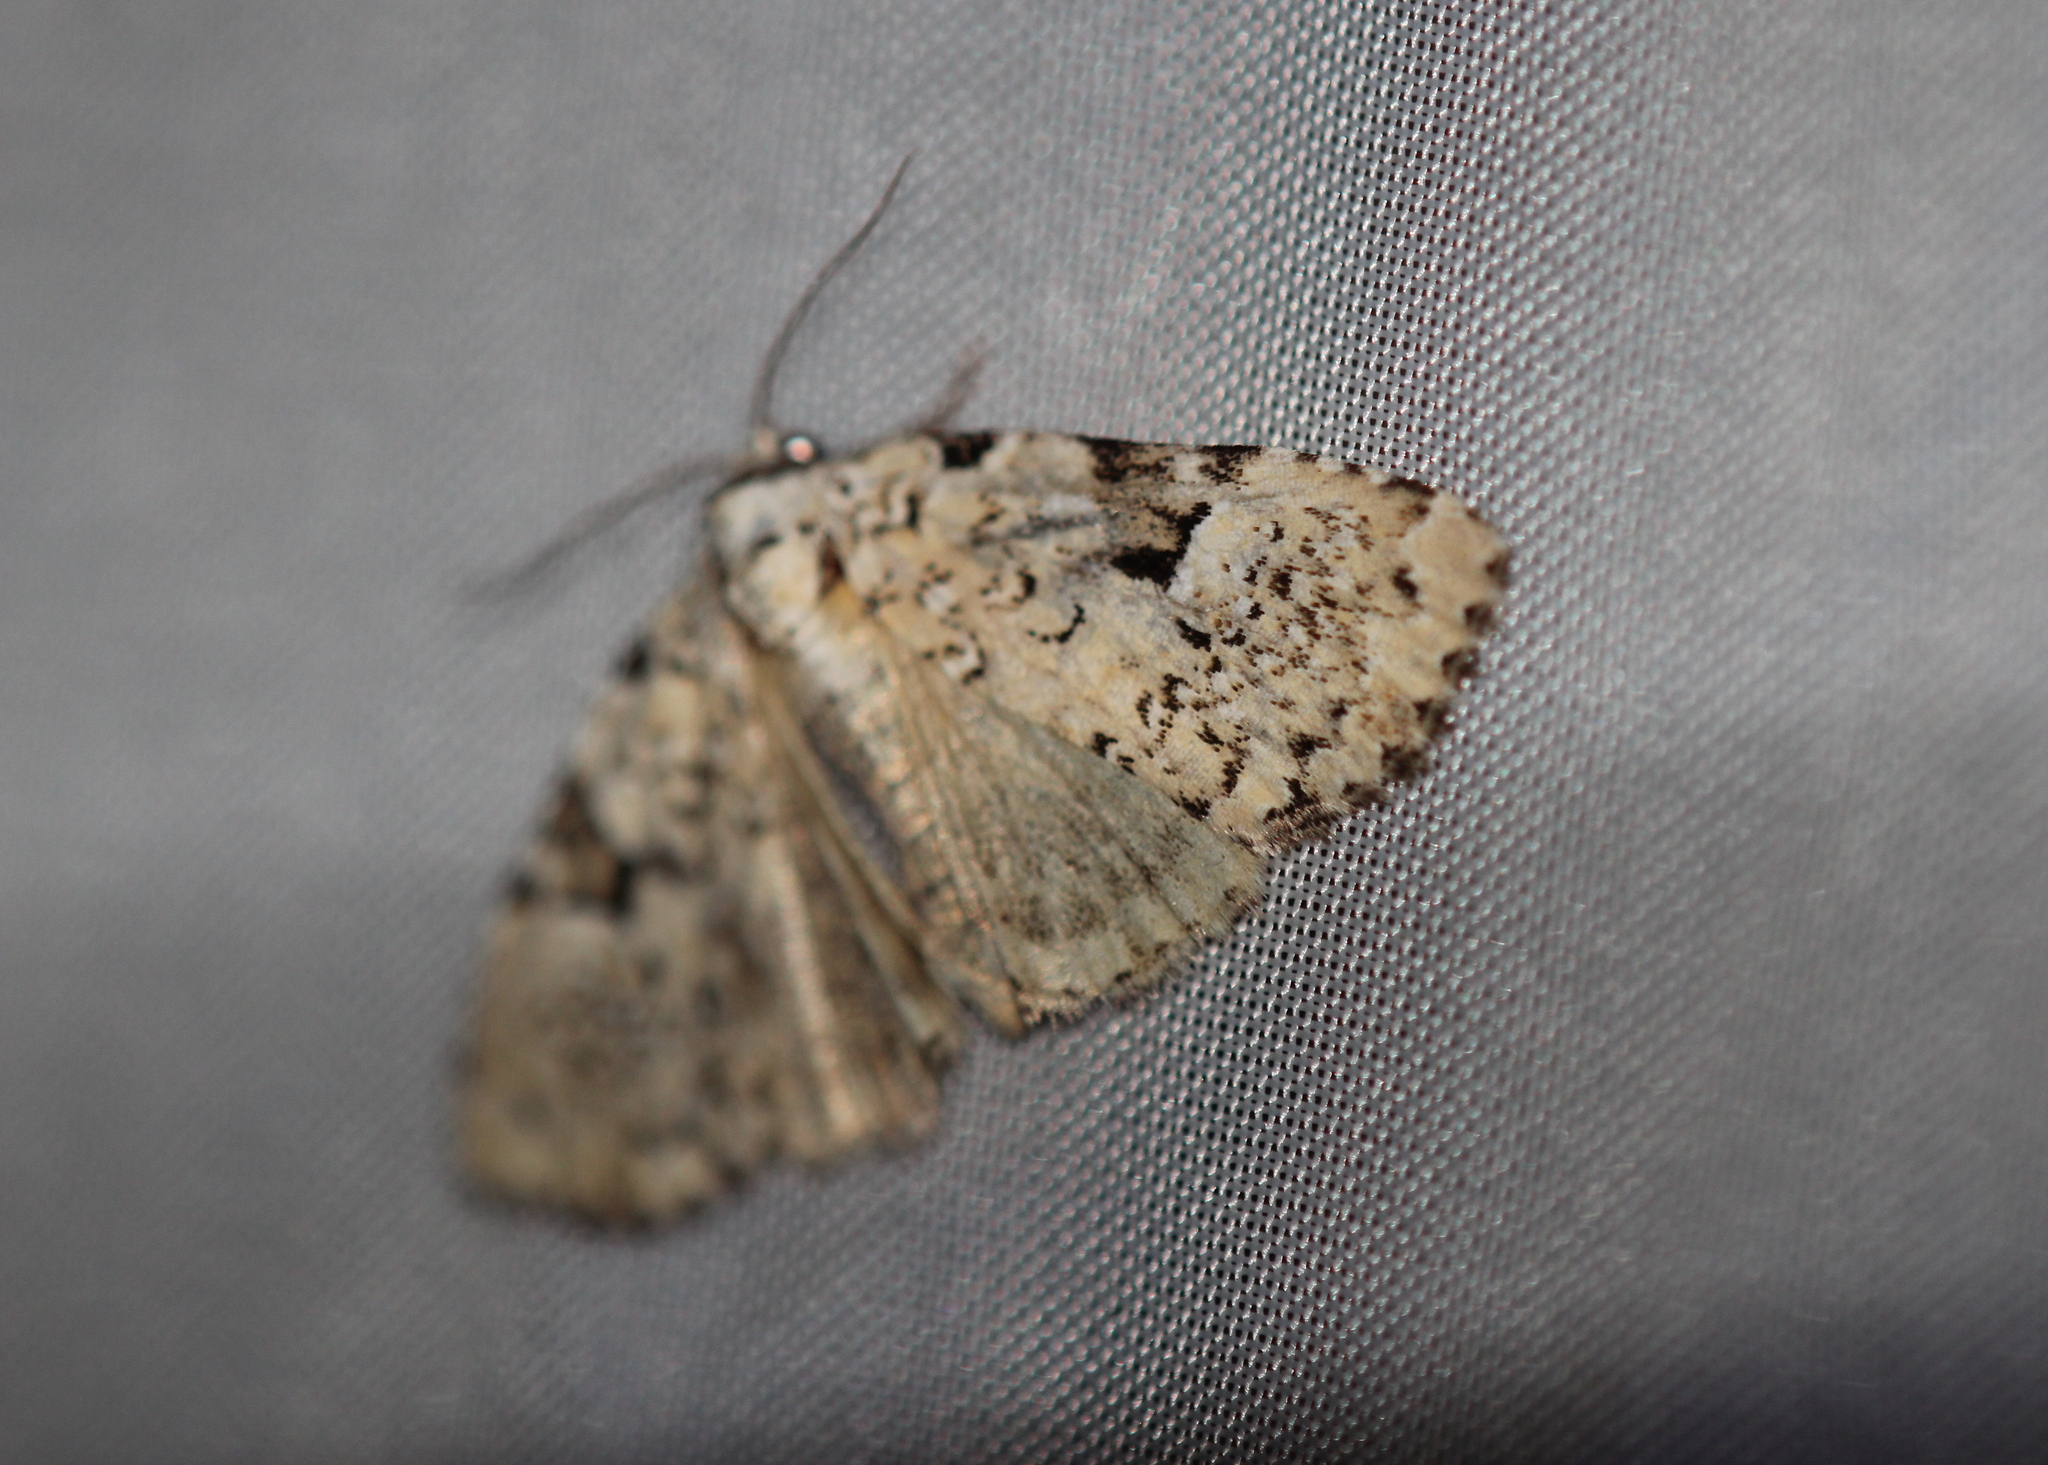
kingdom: Animalia
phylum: Arthropoda
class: Insecta
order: Lepidoptera
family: Noctuidae
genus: Leuconycta
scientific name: Leuconycta diphteroides
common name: Green leuconycta moth
